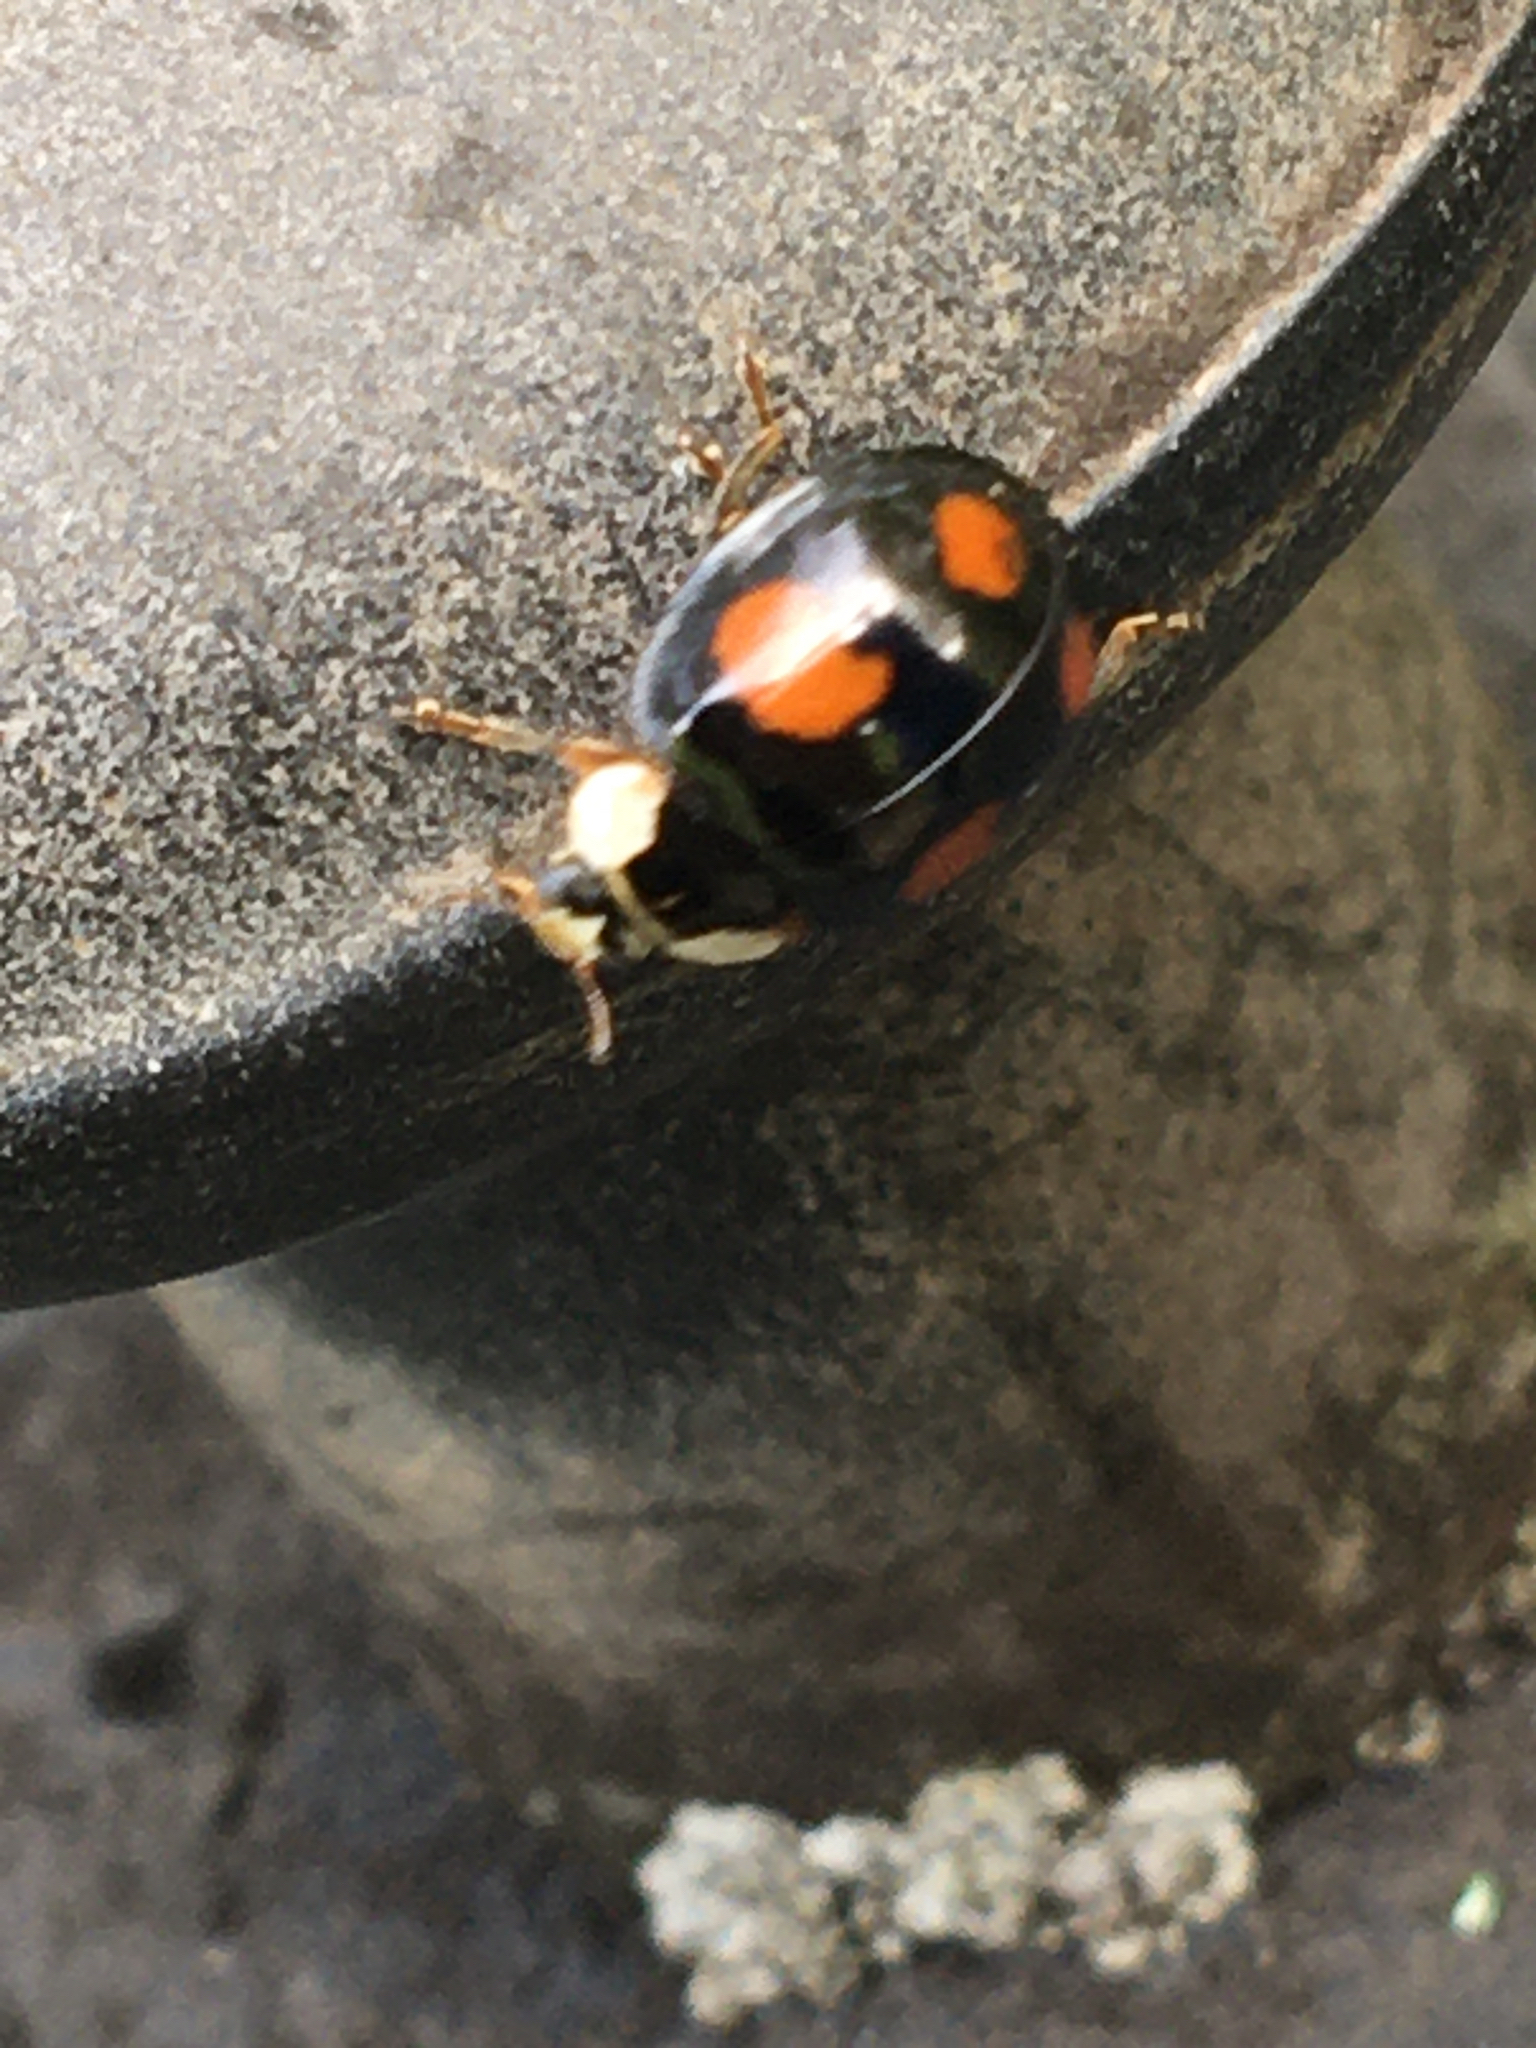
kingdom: Animalia
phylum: Arthropoda
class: Insecta
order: Coleoptera
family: Coccinellidae
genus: Harmonia
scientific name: Harmonia axyridis
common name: Harlequin ladybird
